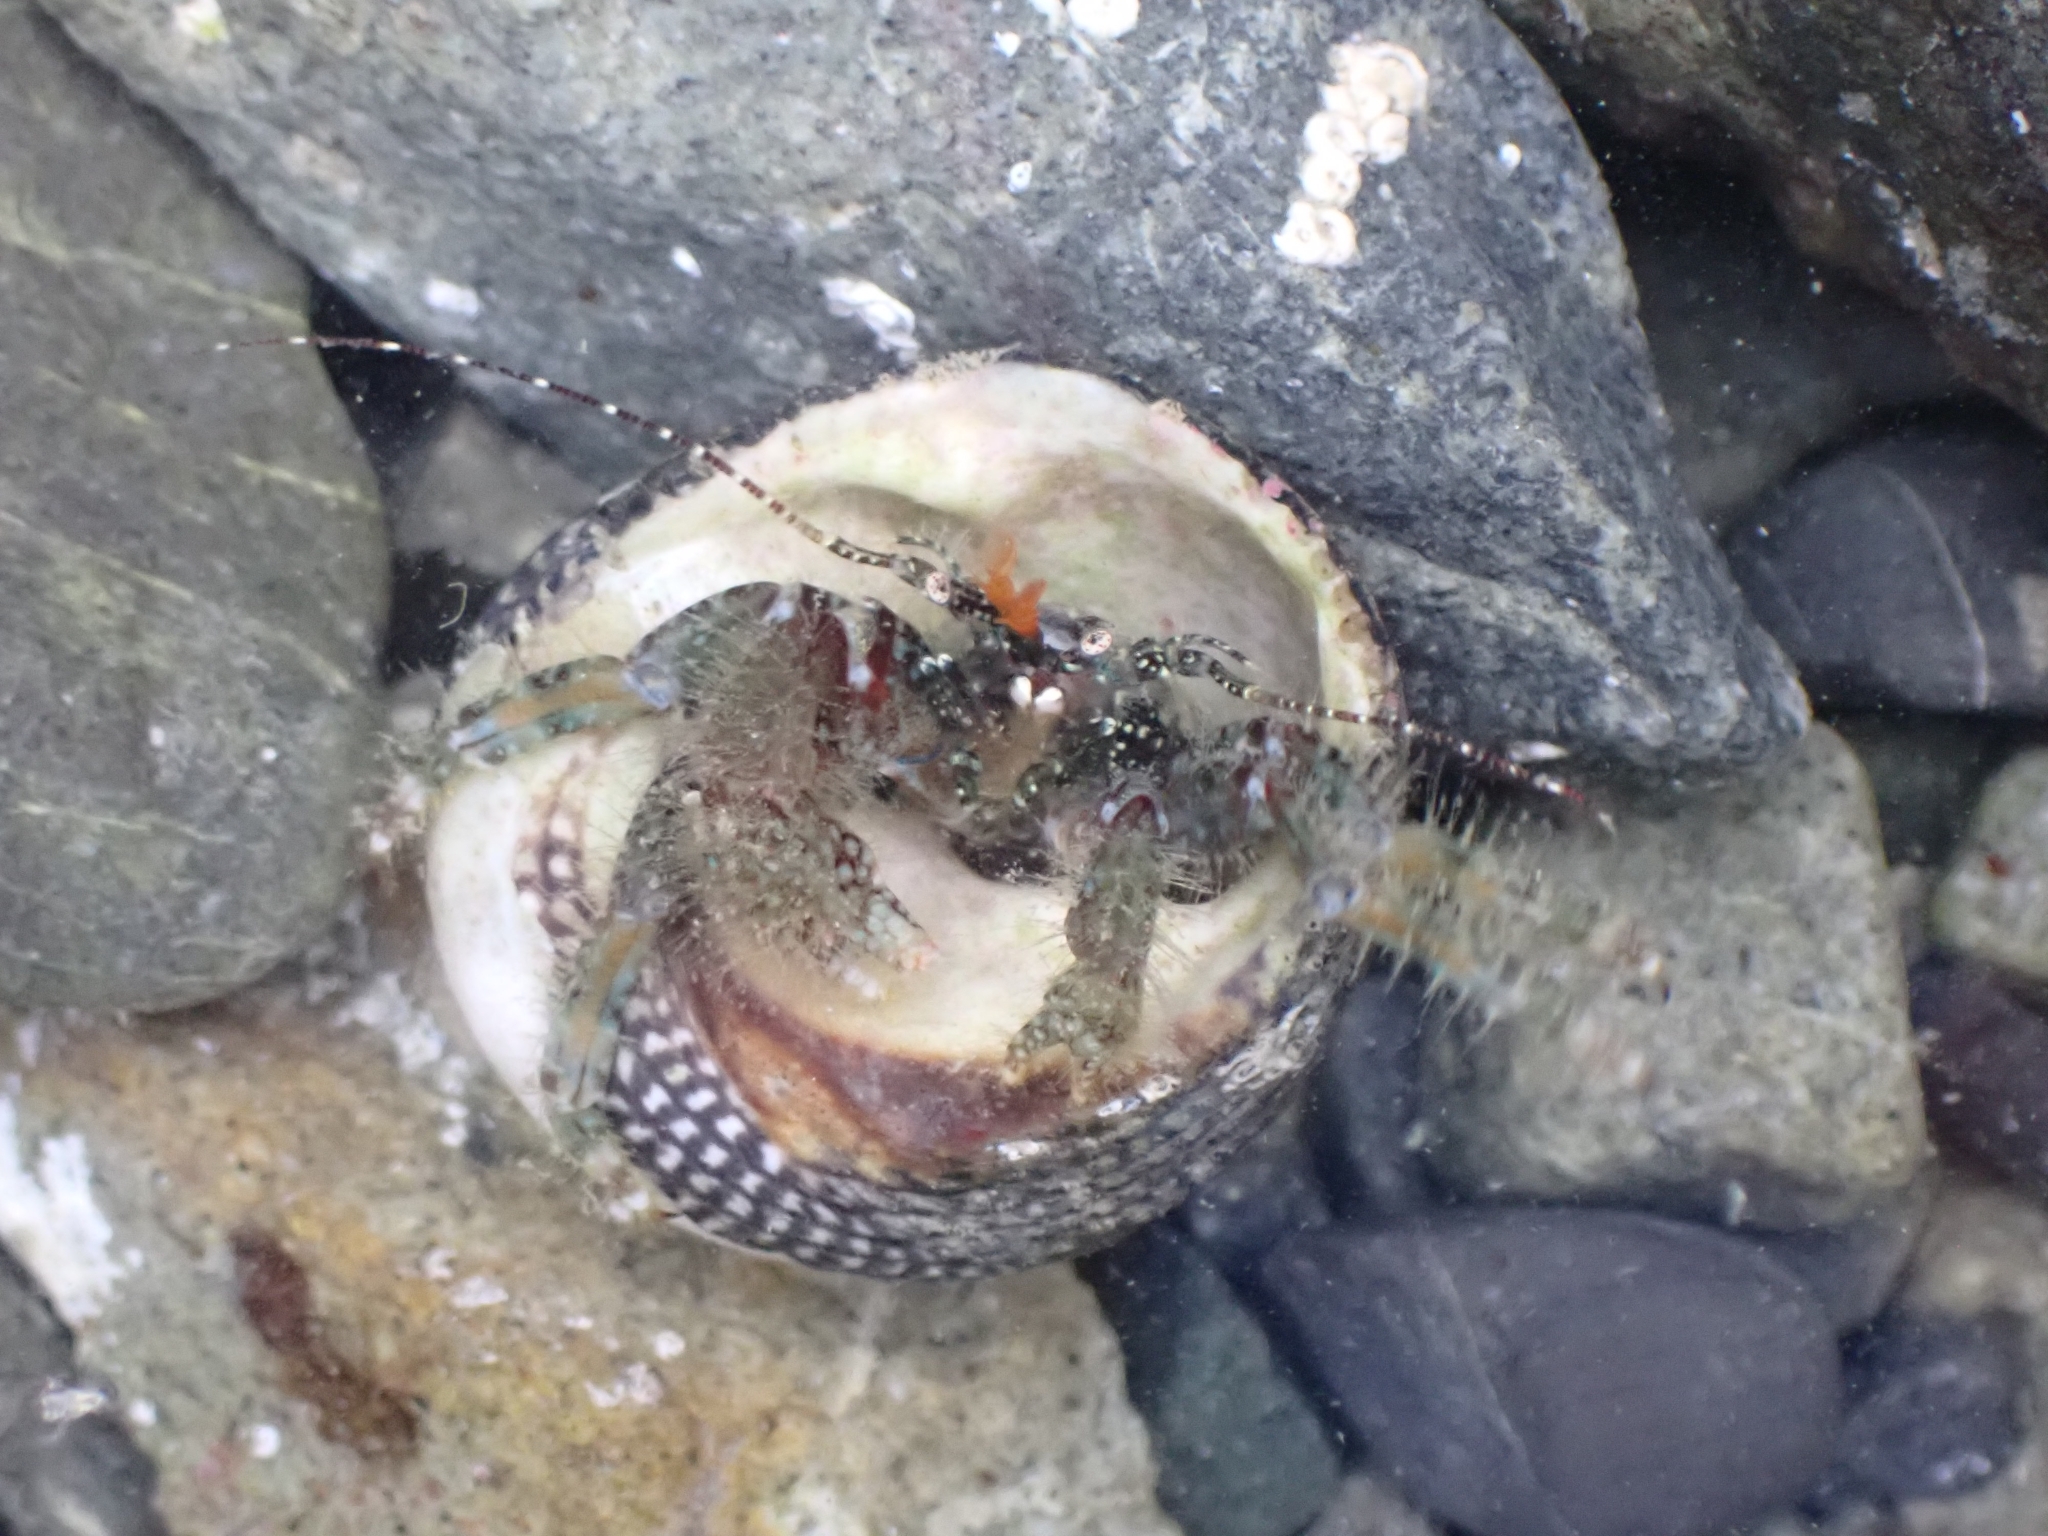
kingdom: Animalia
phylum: Arthropoda
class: Malacostraca
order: Decapoda
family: Paguridae
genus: Pagurus
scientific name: Pagurus traversi
